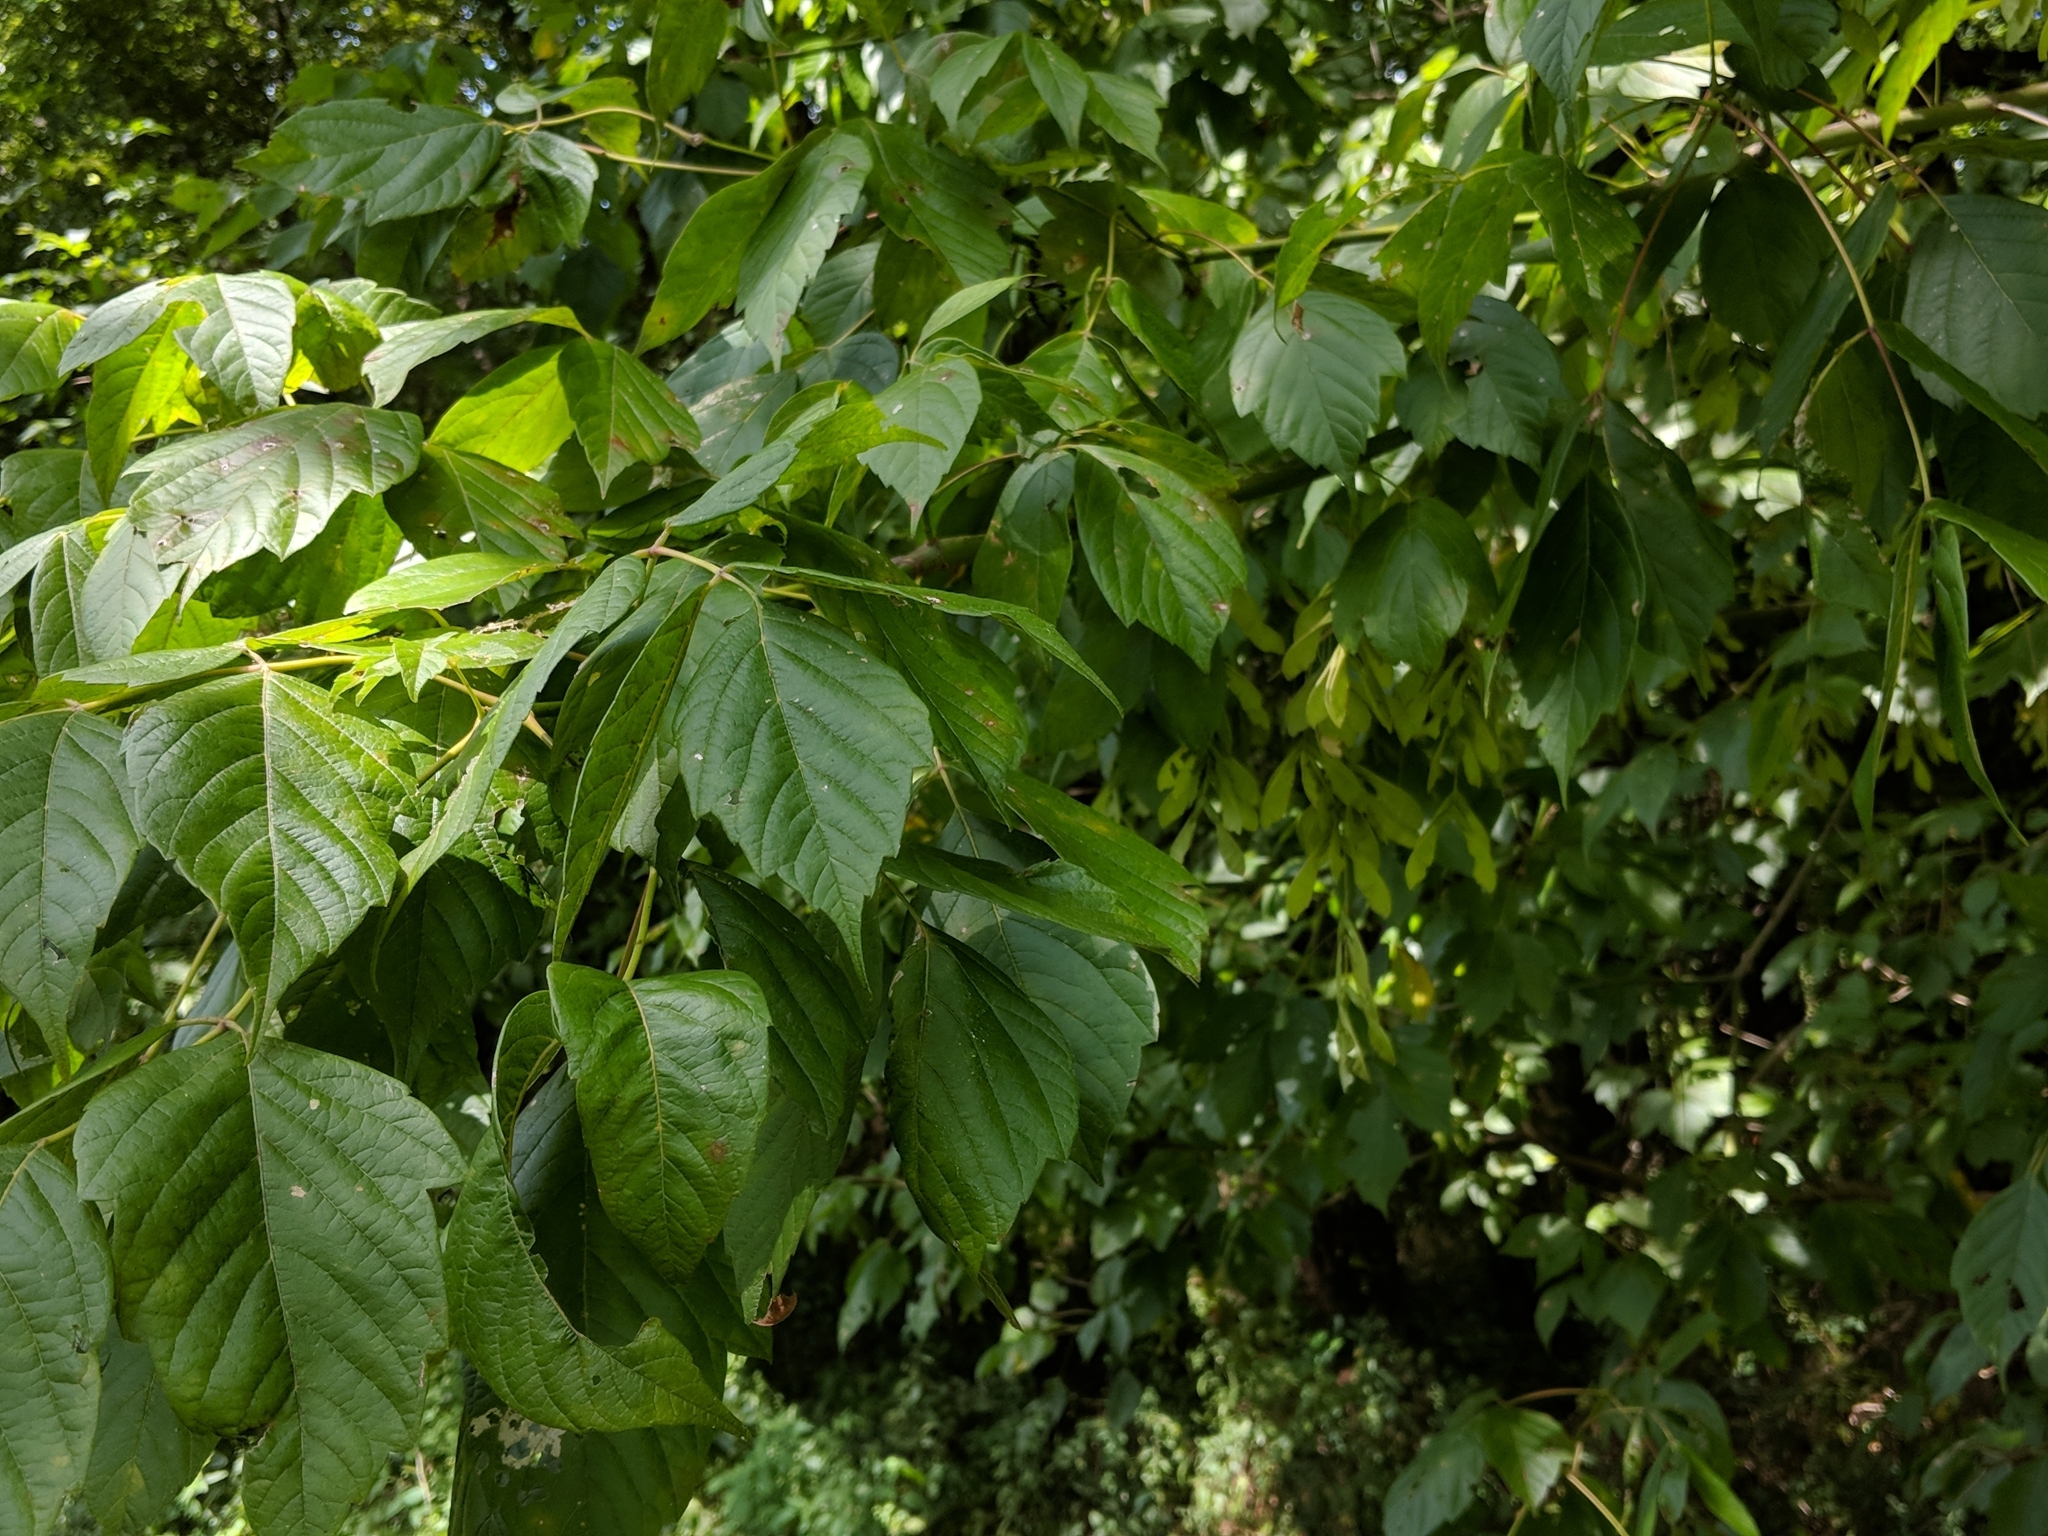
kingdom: Plantae
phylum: Tracheophyta
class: Magnoliopsida
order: Sapindales
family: Sapindaceae
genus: Acer
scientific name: Acer negundo
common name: Ashleaf maple
